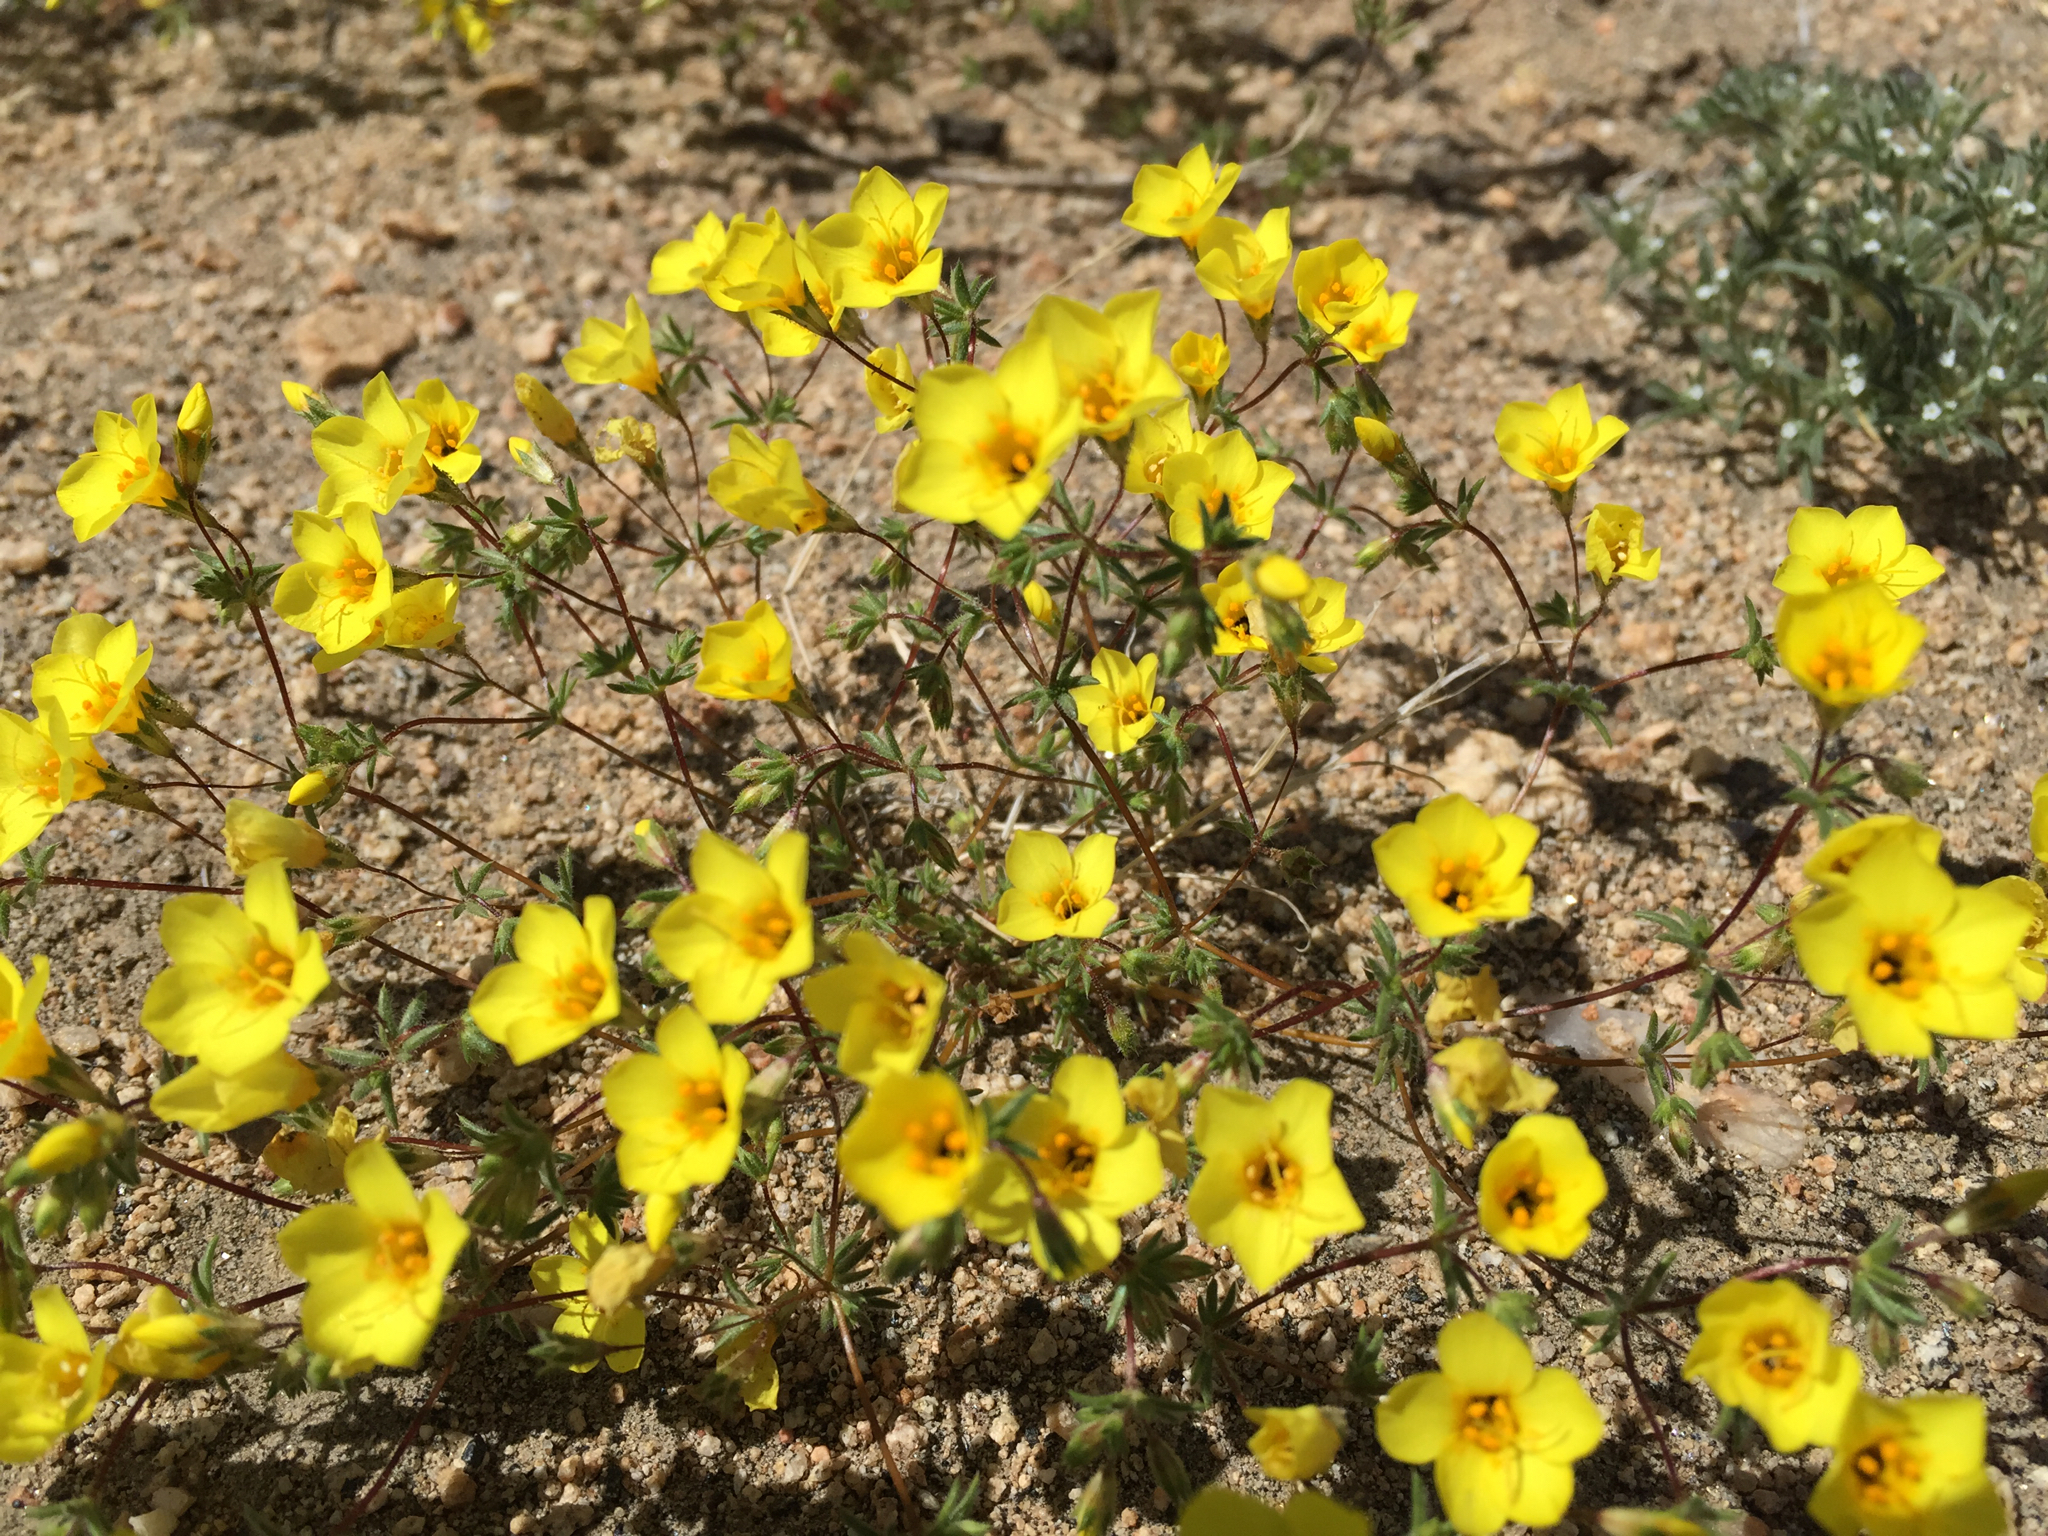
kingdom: Plantae
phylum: Tracheophyta
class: Magnoliopsida
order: Ericales
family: Polemoniaceae
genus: Leptosiphon
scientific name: Leptosiphon chrysanthus
